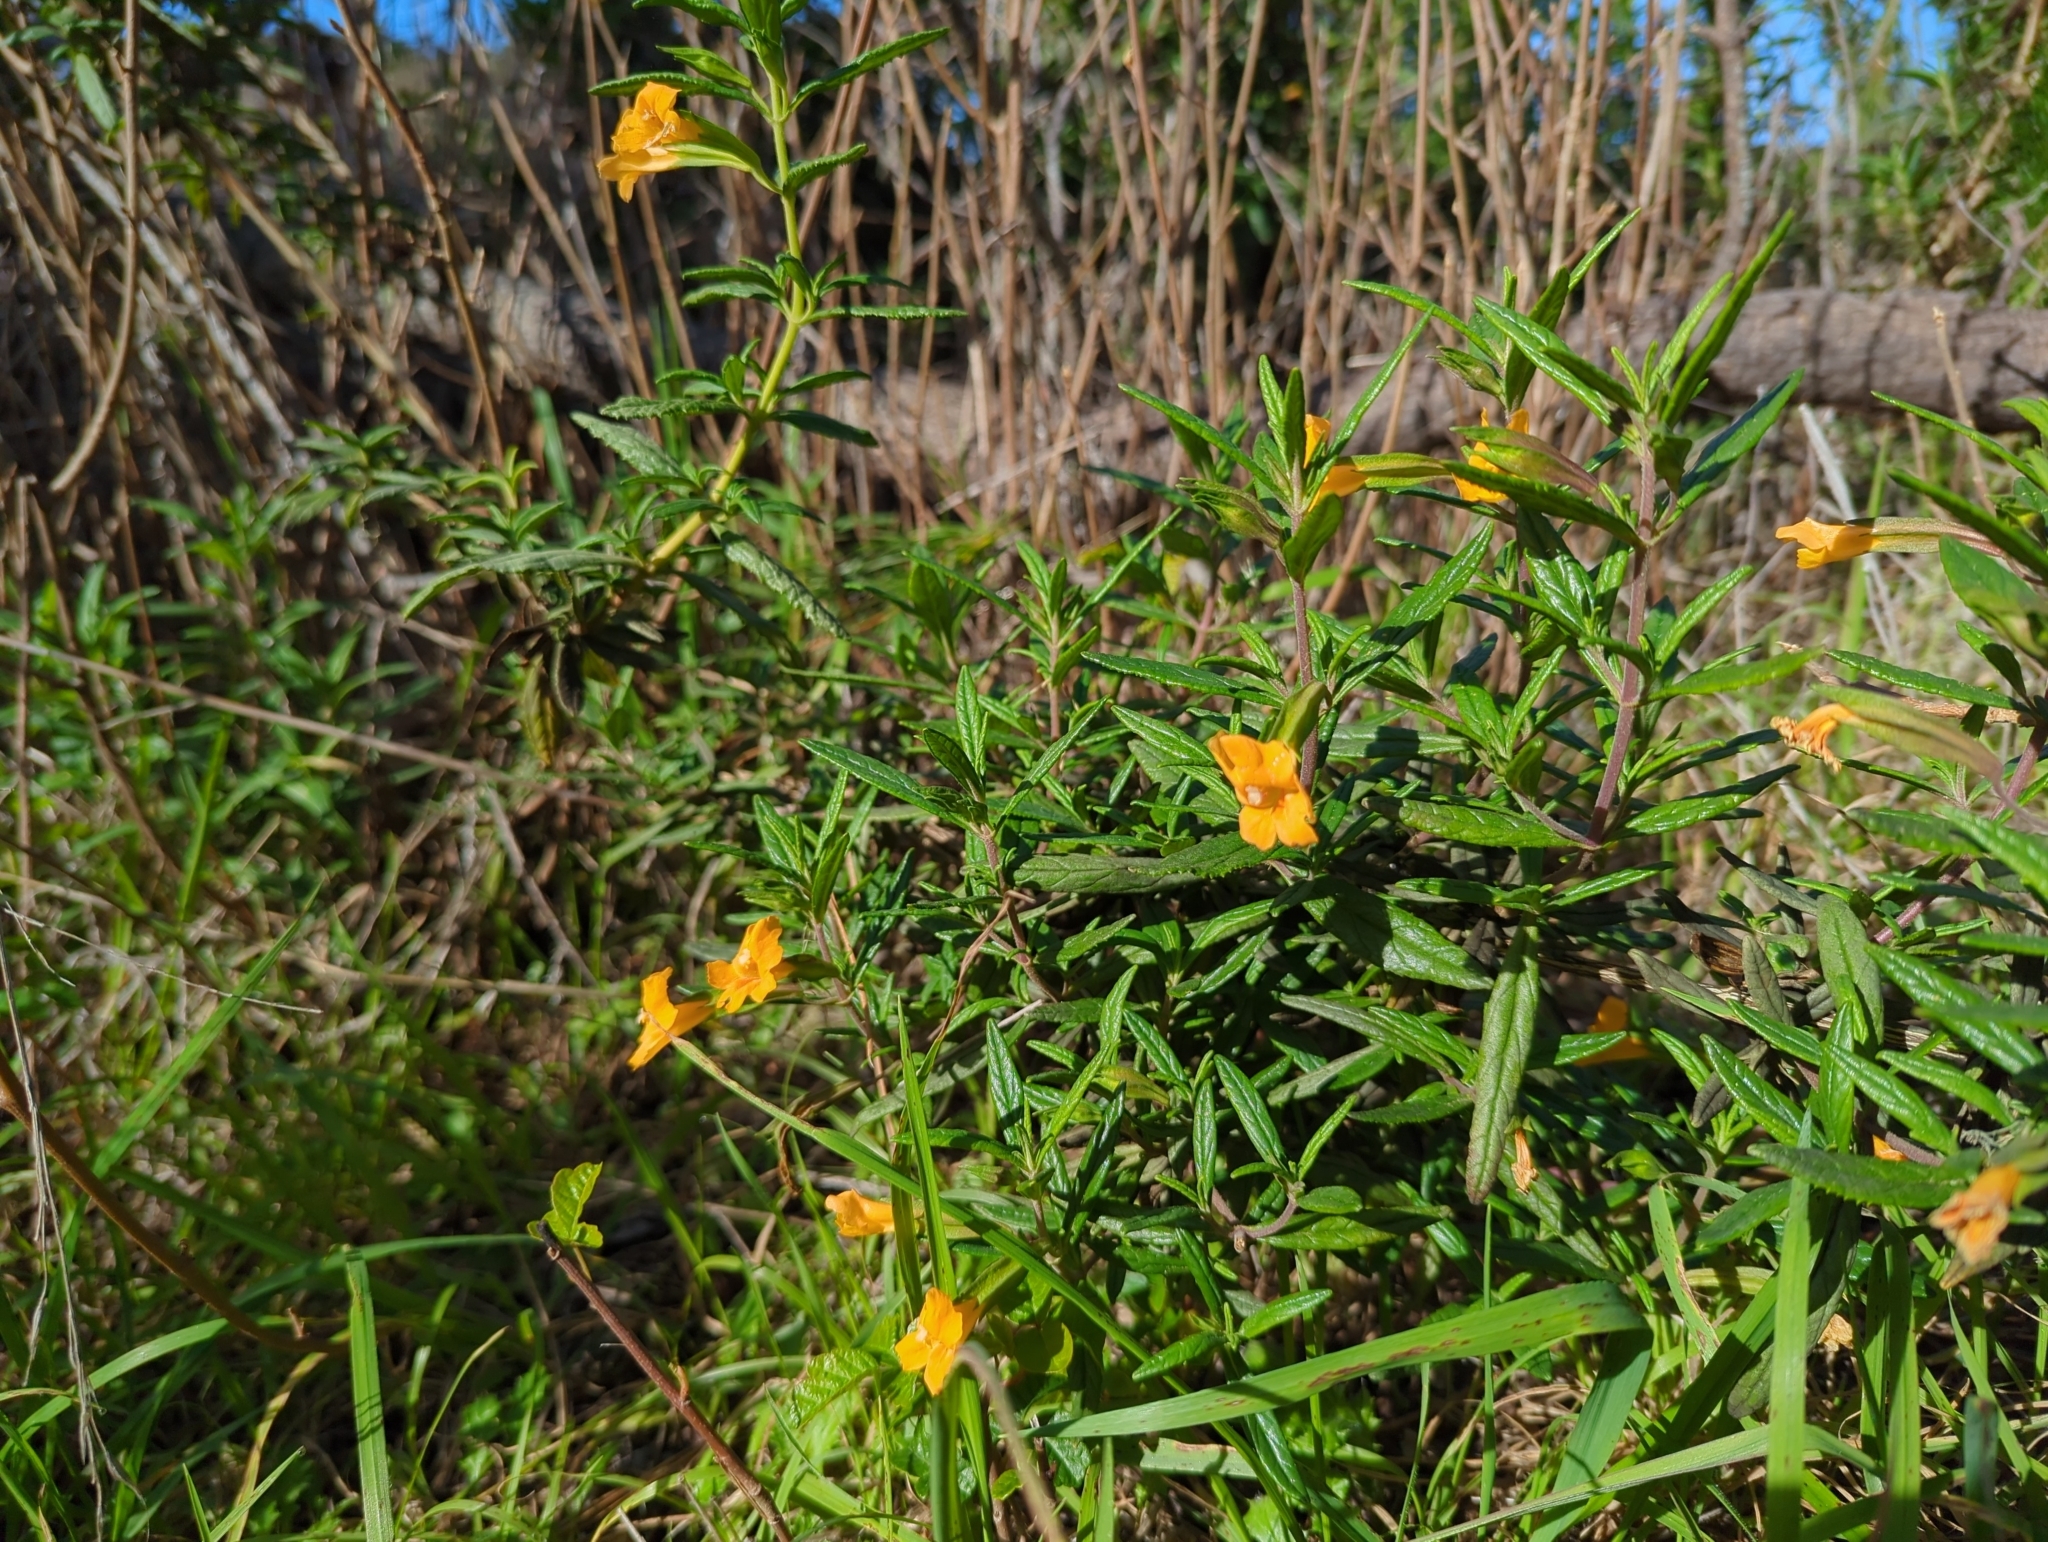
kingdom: Plantae
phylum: Tracheophyta
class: Magnoliopsida
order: Lamiales
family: Phrymaceae
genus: Diplacus
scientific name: Diplacus aurantiacus
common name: Bush monkey-flower
